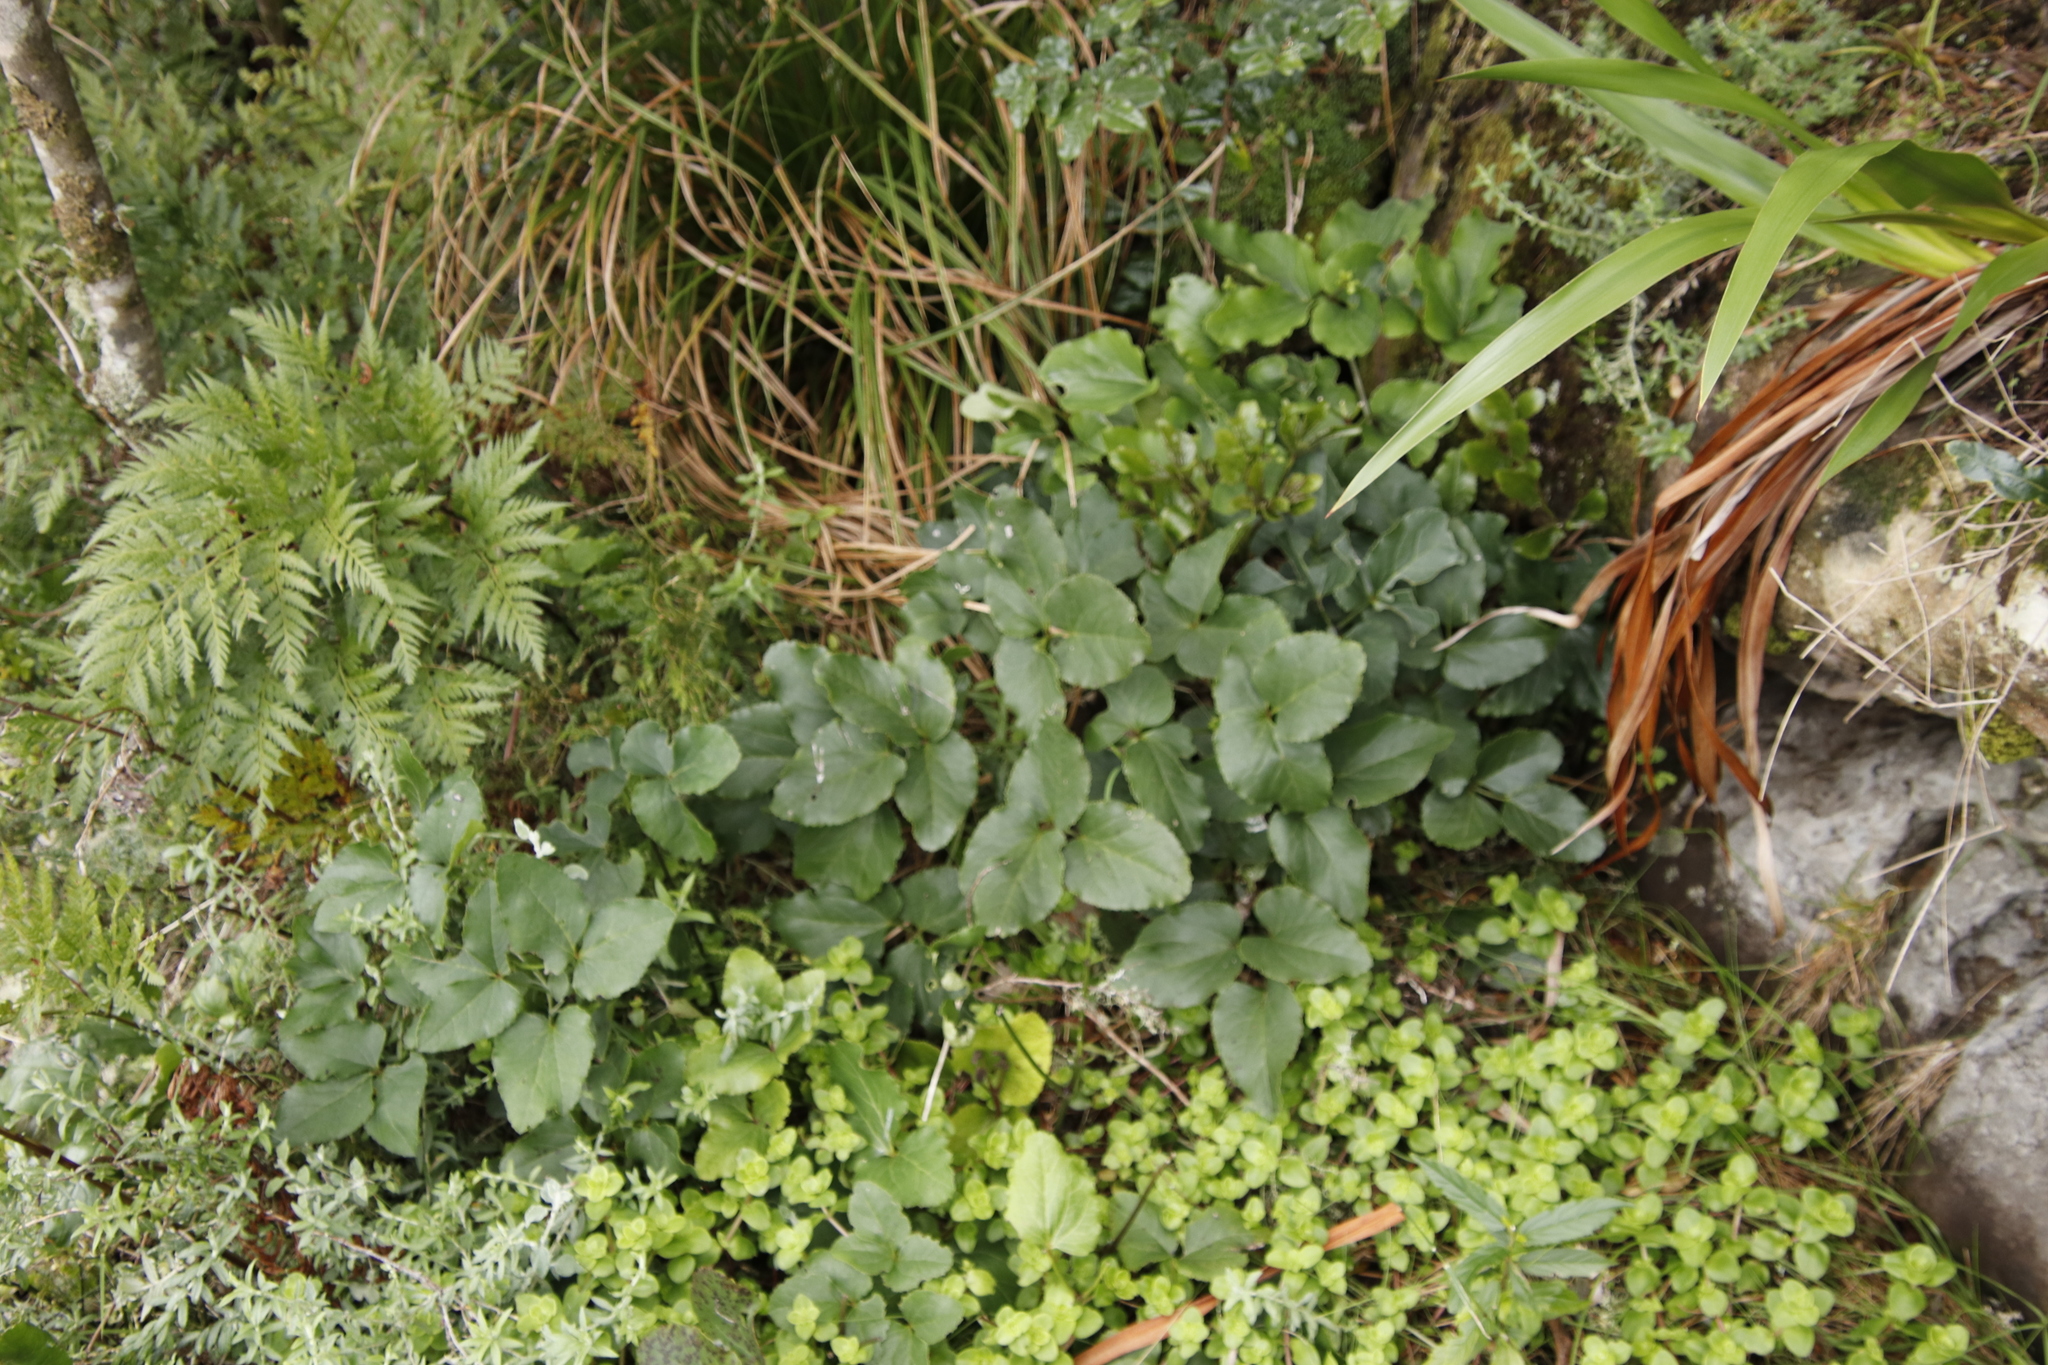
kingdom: Plantae
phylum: Tracheophyta
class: Magnoliopsida
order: Ranunculales
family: Ranunculaceae
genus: Knowltonia
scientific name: Knowltonia vesicatoria
